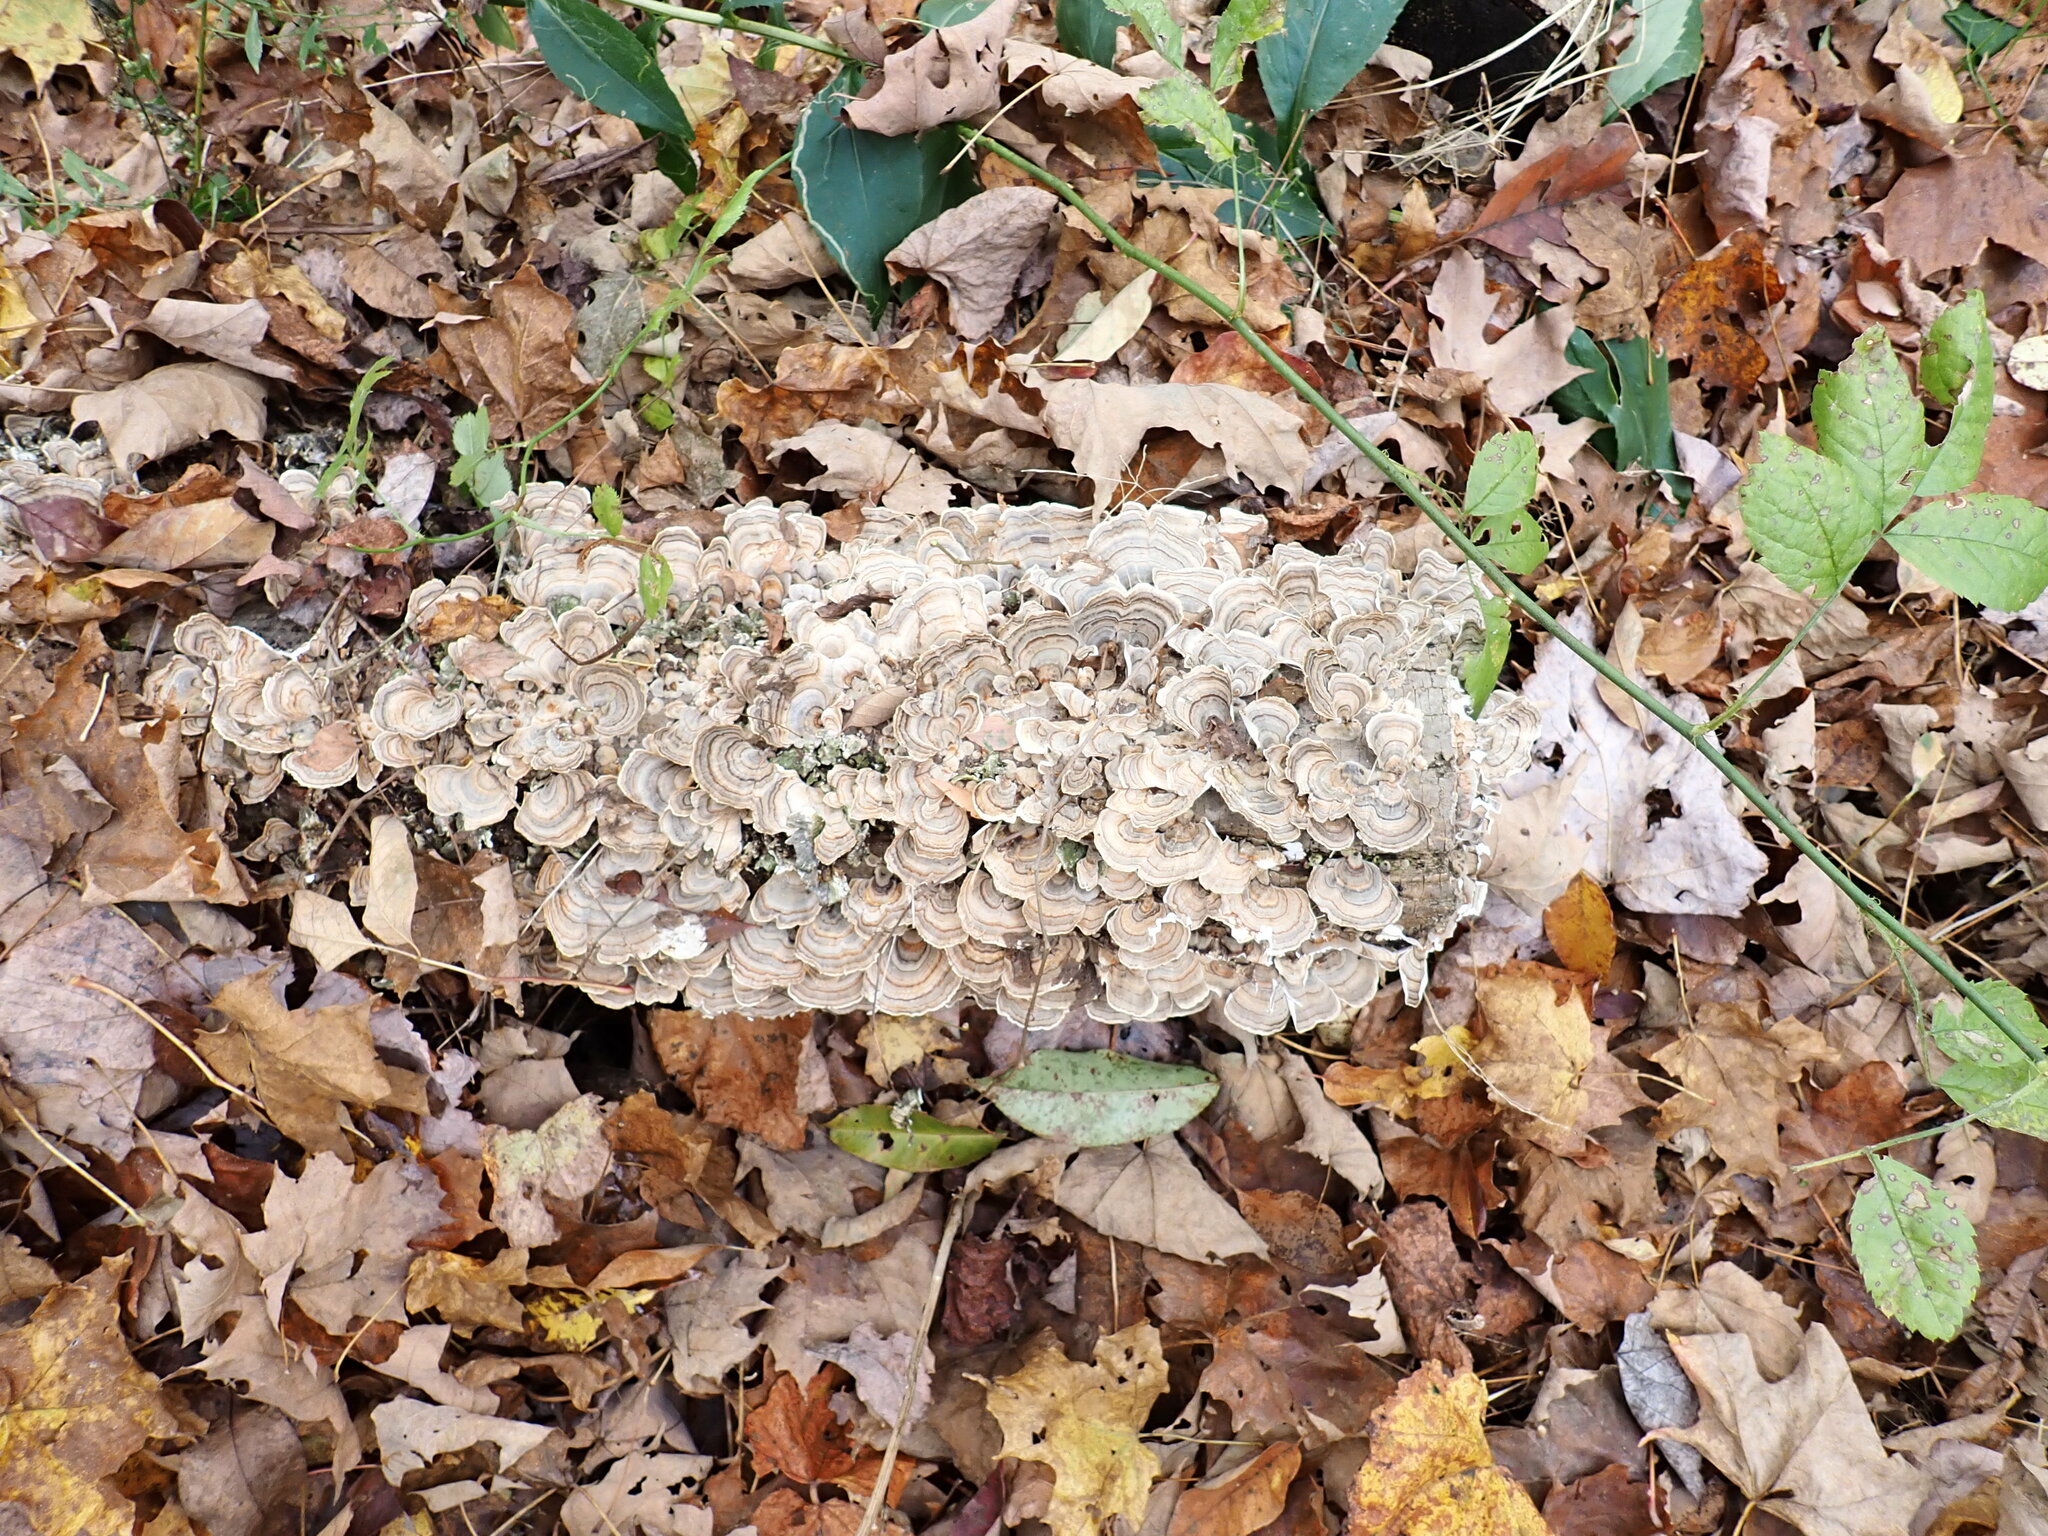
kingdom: Fungi
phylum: Basidiomycota
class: Agaricomycetes
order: Polyporales
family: Polyporaceae
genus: Trametes
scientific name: Trametes versicolor
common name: Turkeytail
